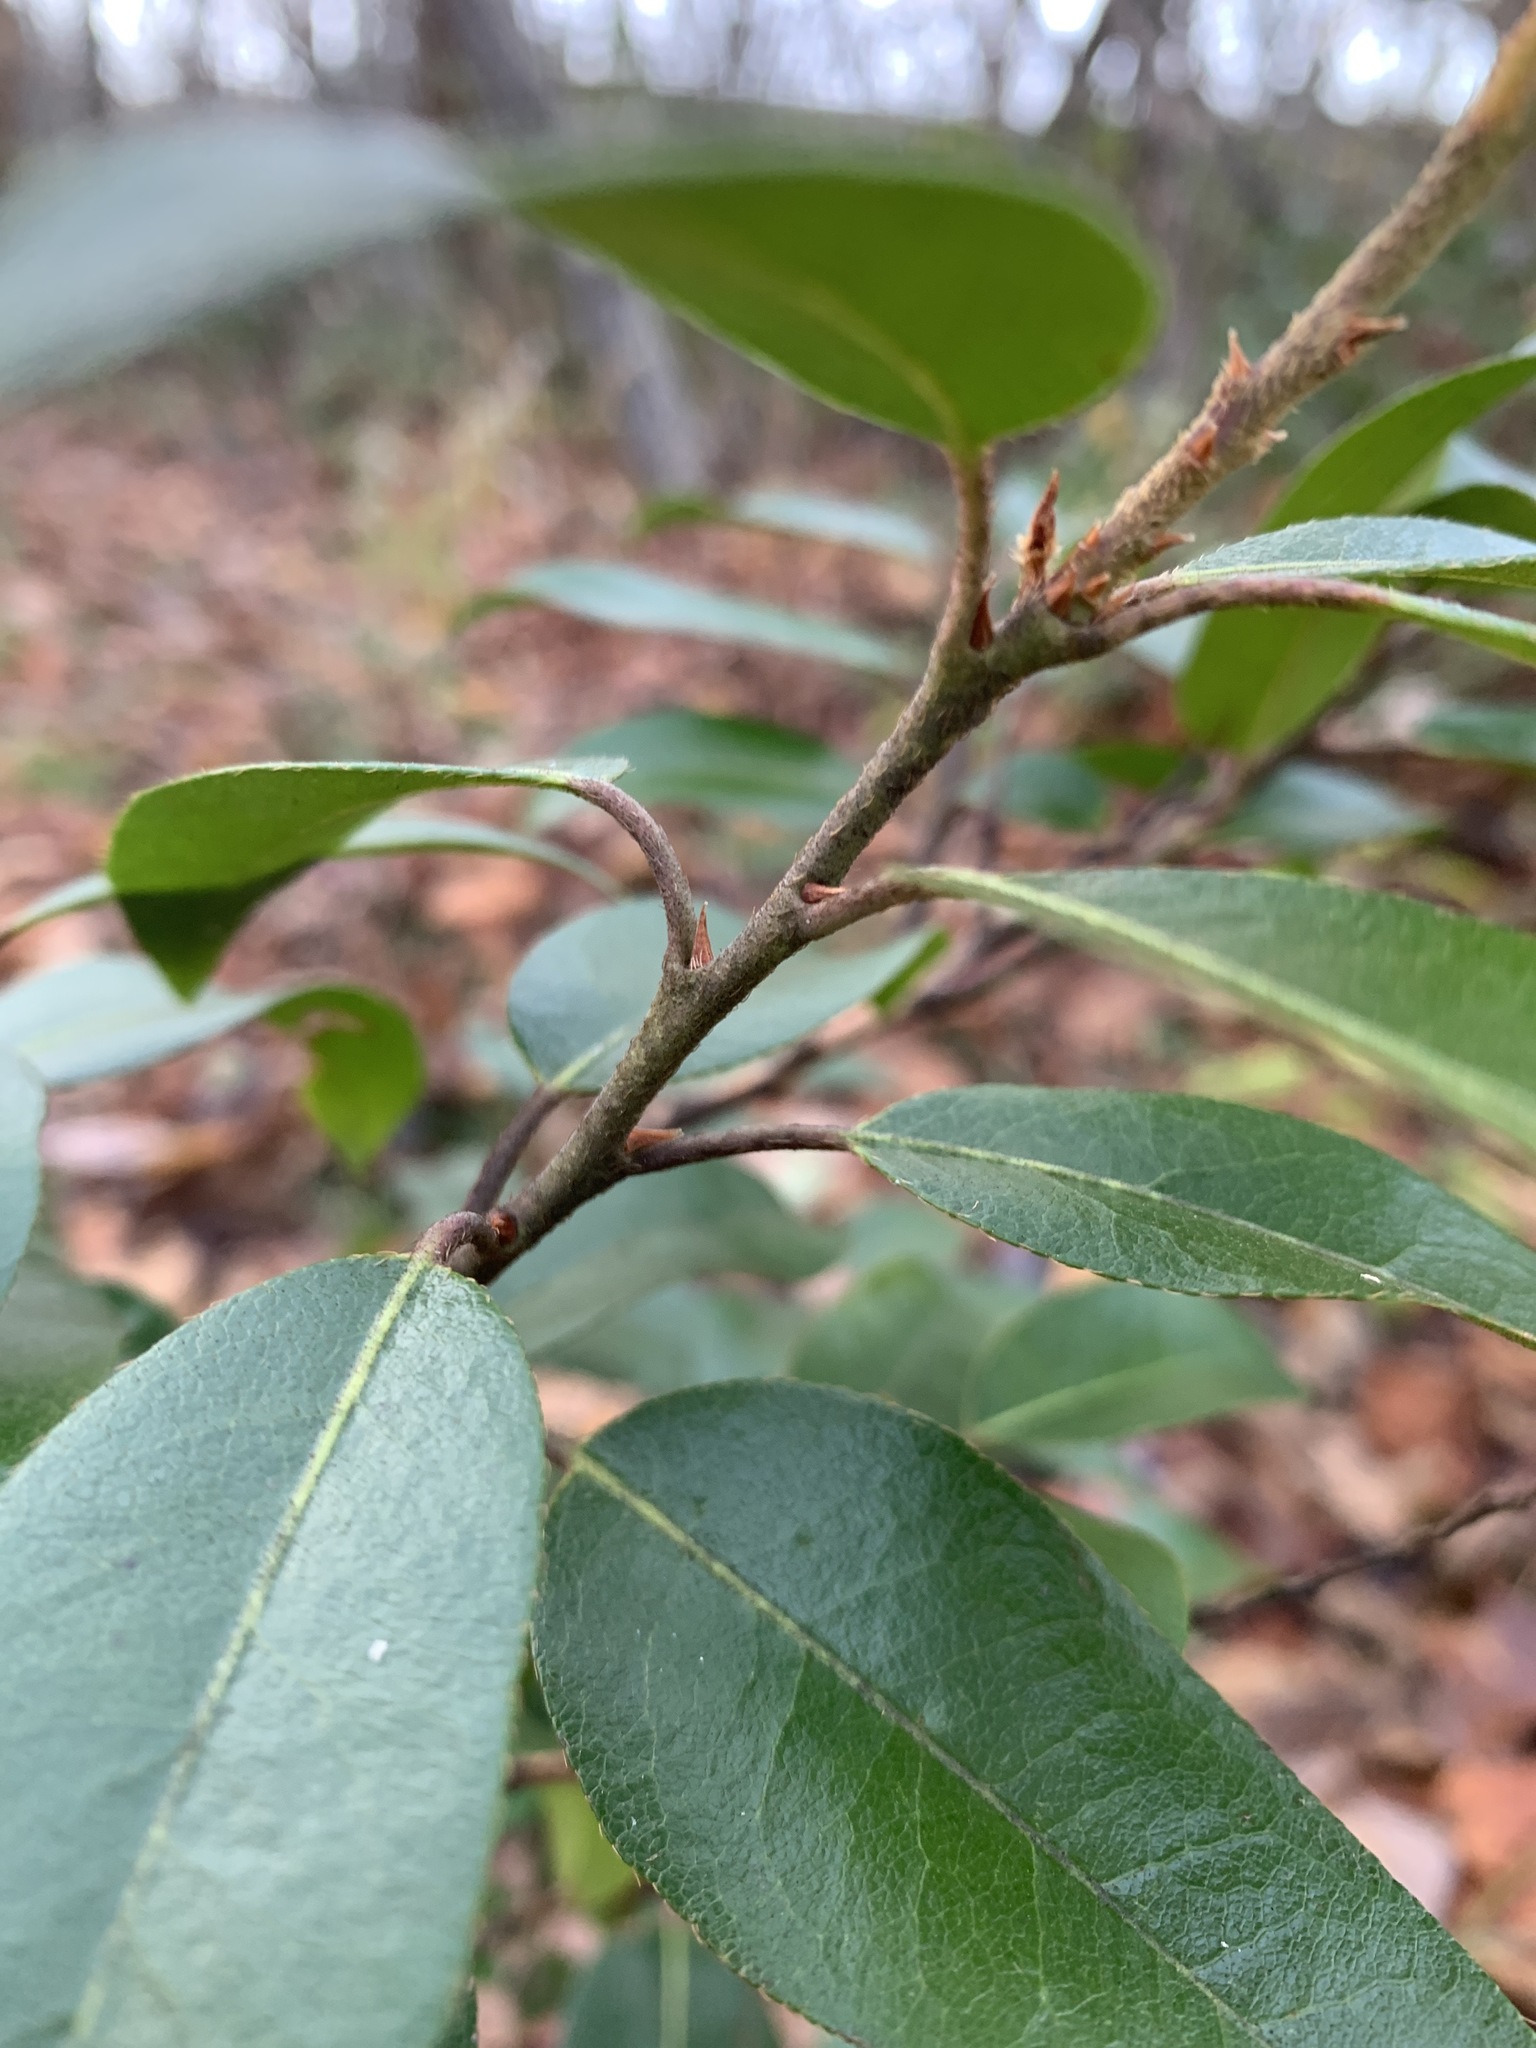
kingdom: Plantae
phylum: Tracheophyta
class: Magnoliopsida
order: Ericales
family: Ericaceae
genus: Pieris
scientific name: Pieris floribunda
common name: Flutterbush
